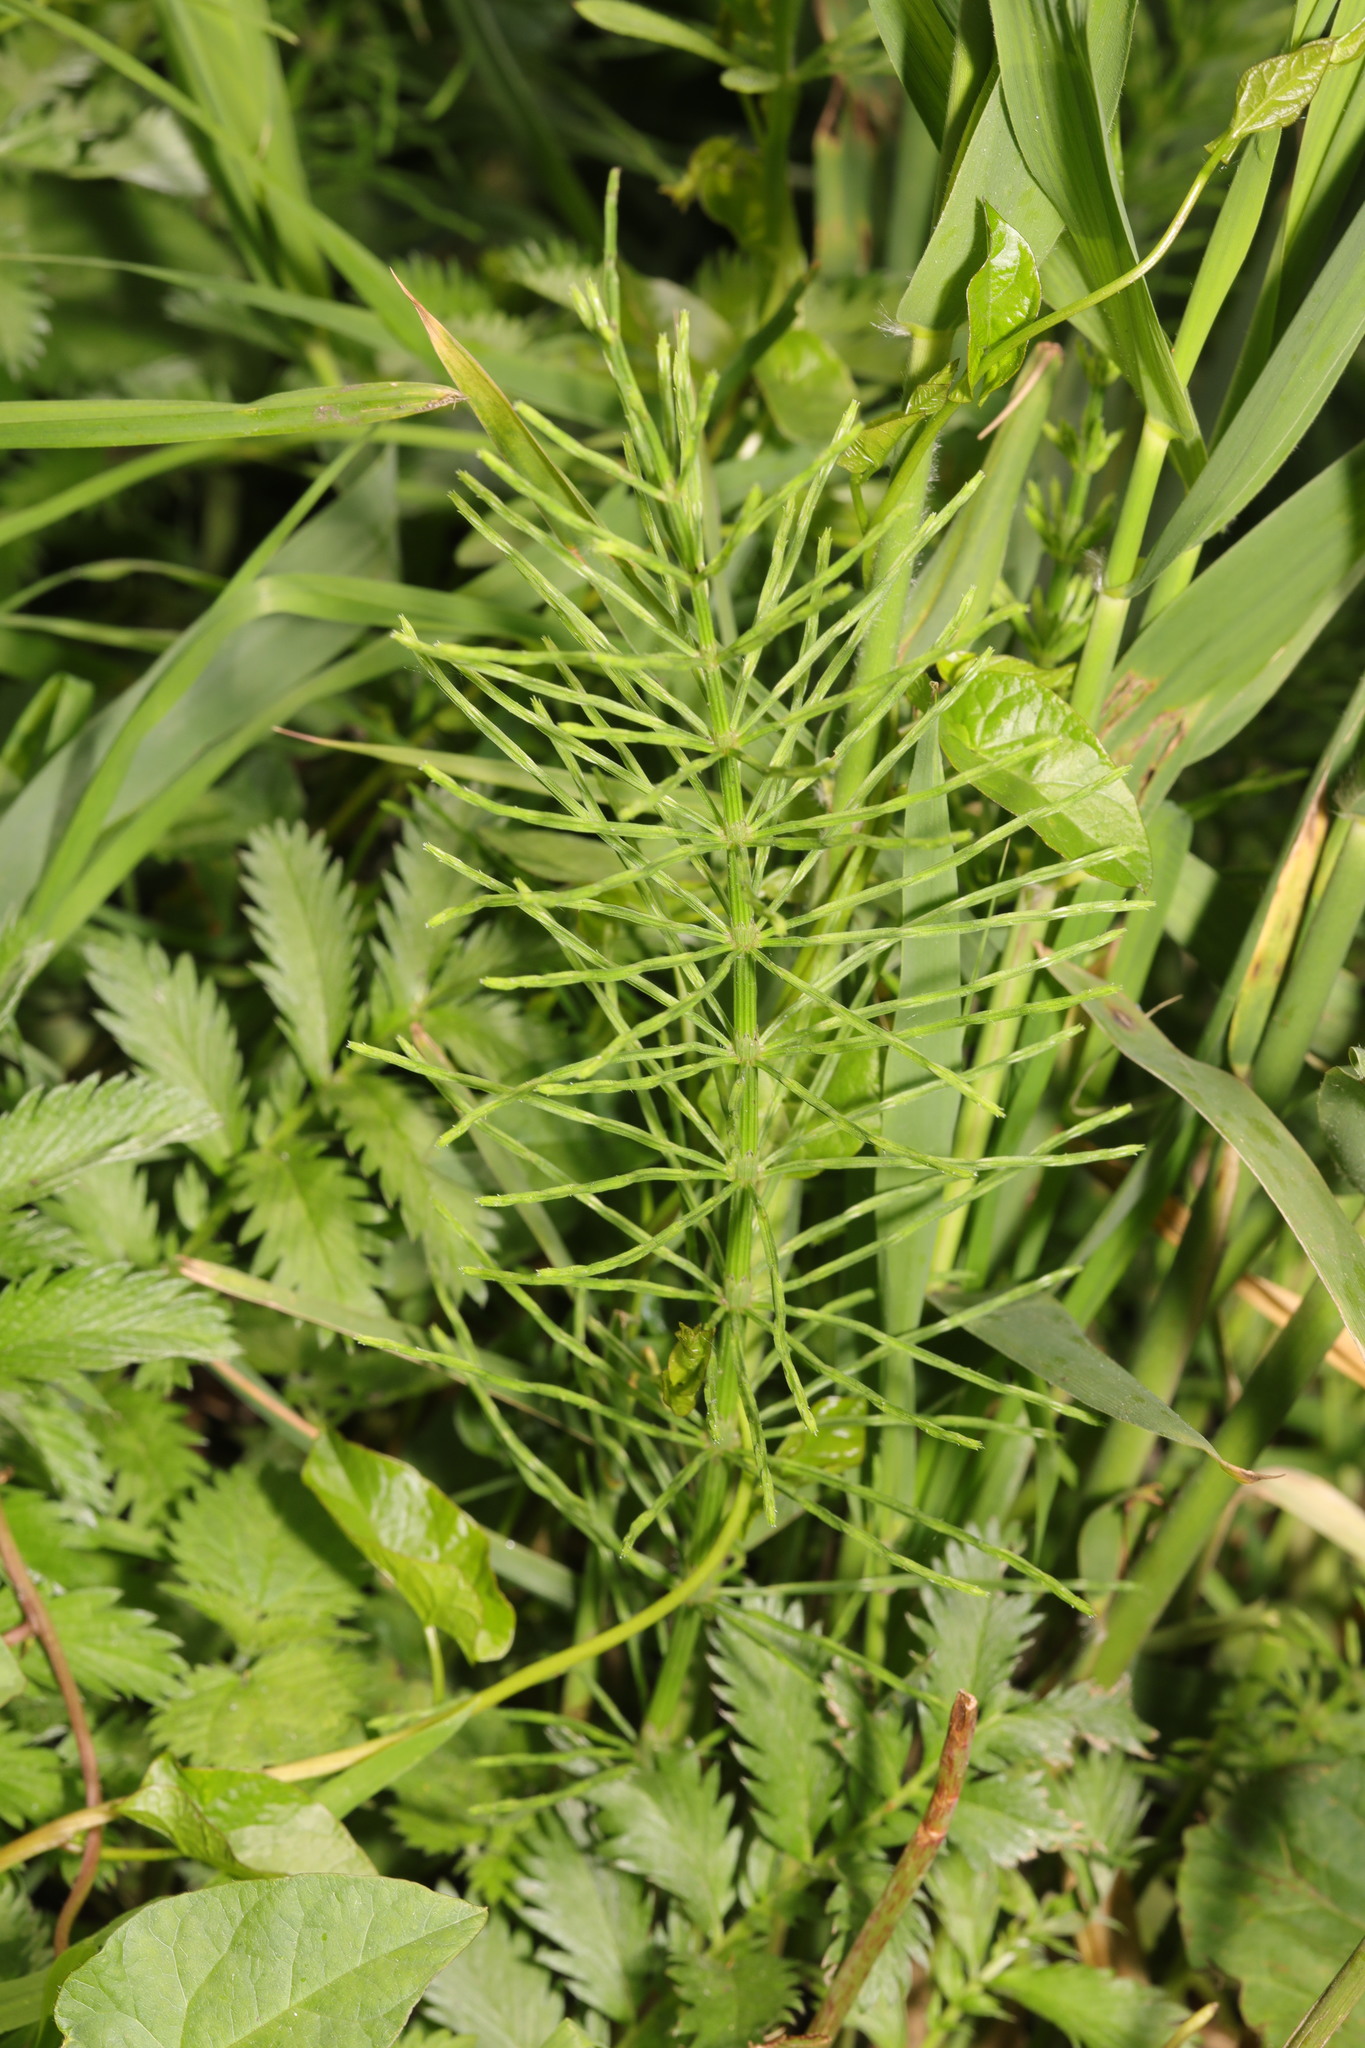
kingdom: Plantae
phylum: Tracheophyta
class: Polypodiopsida
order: Equisetales
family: Equisetaceae
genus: Equisetum
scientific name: Equisetum arvense
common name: Field horsetail
